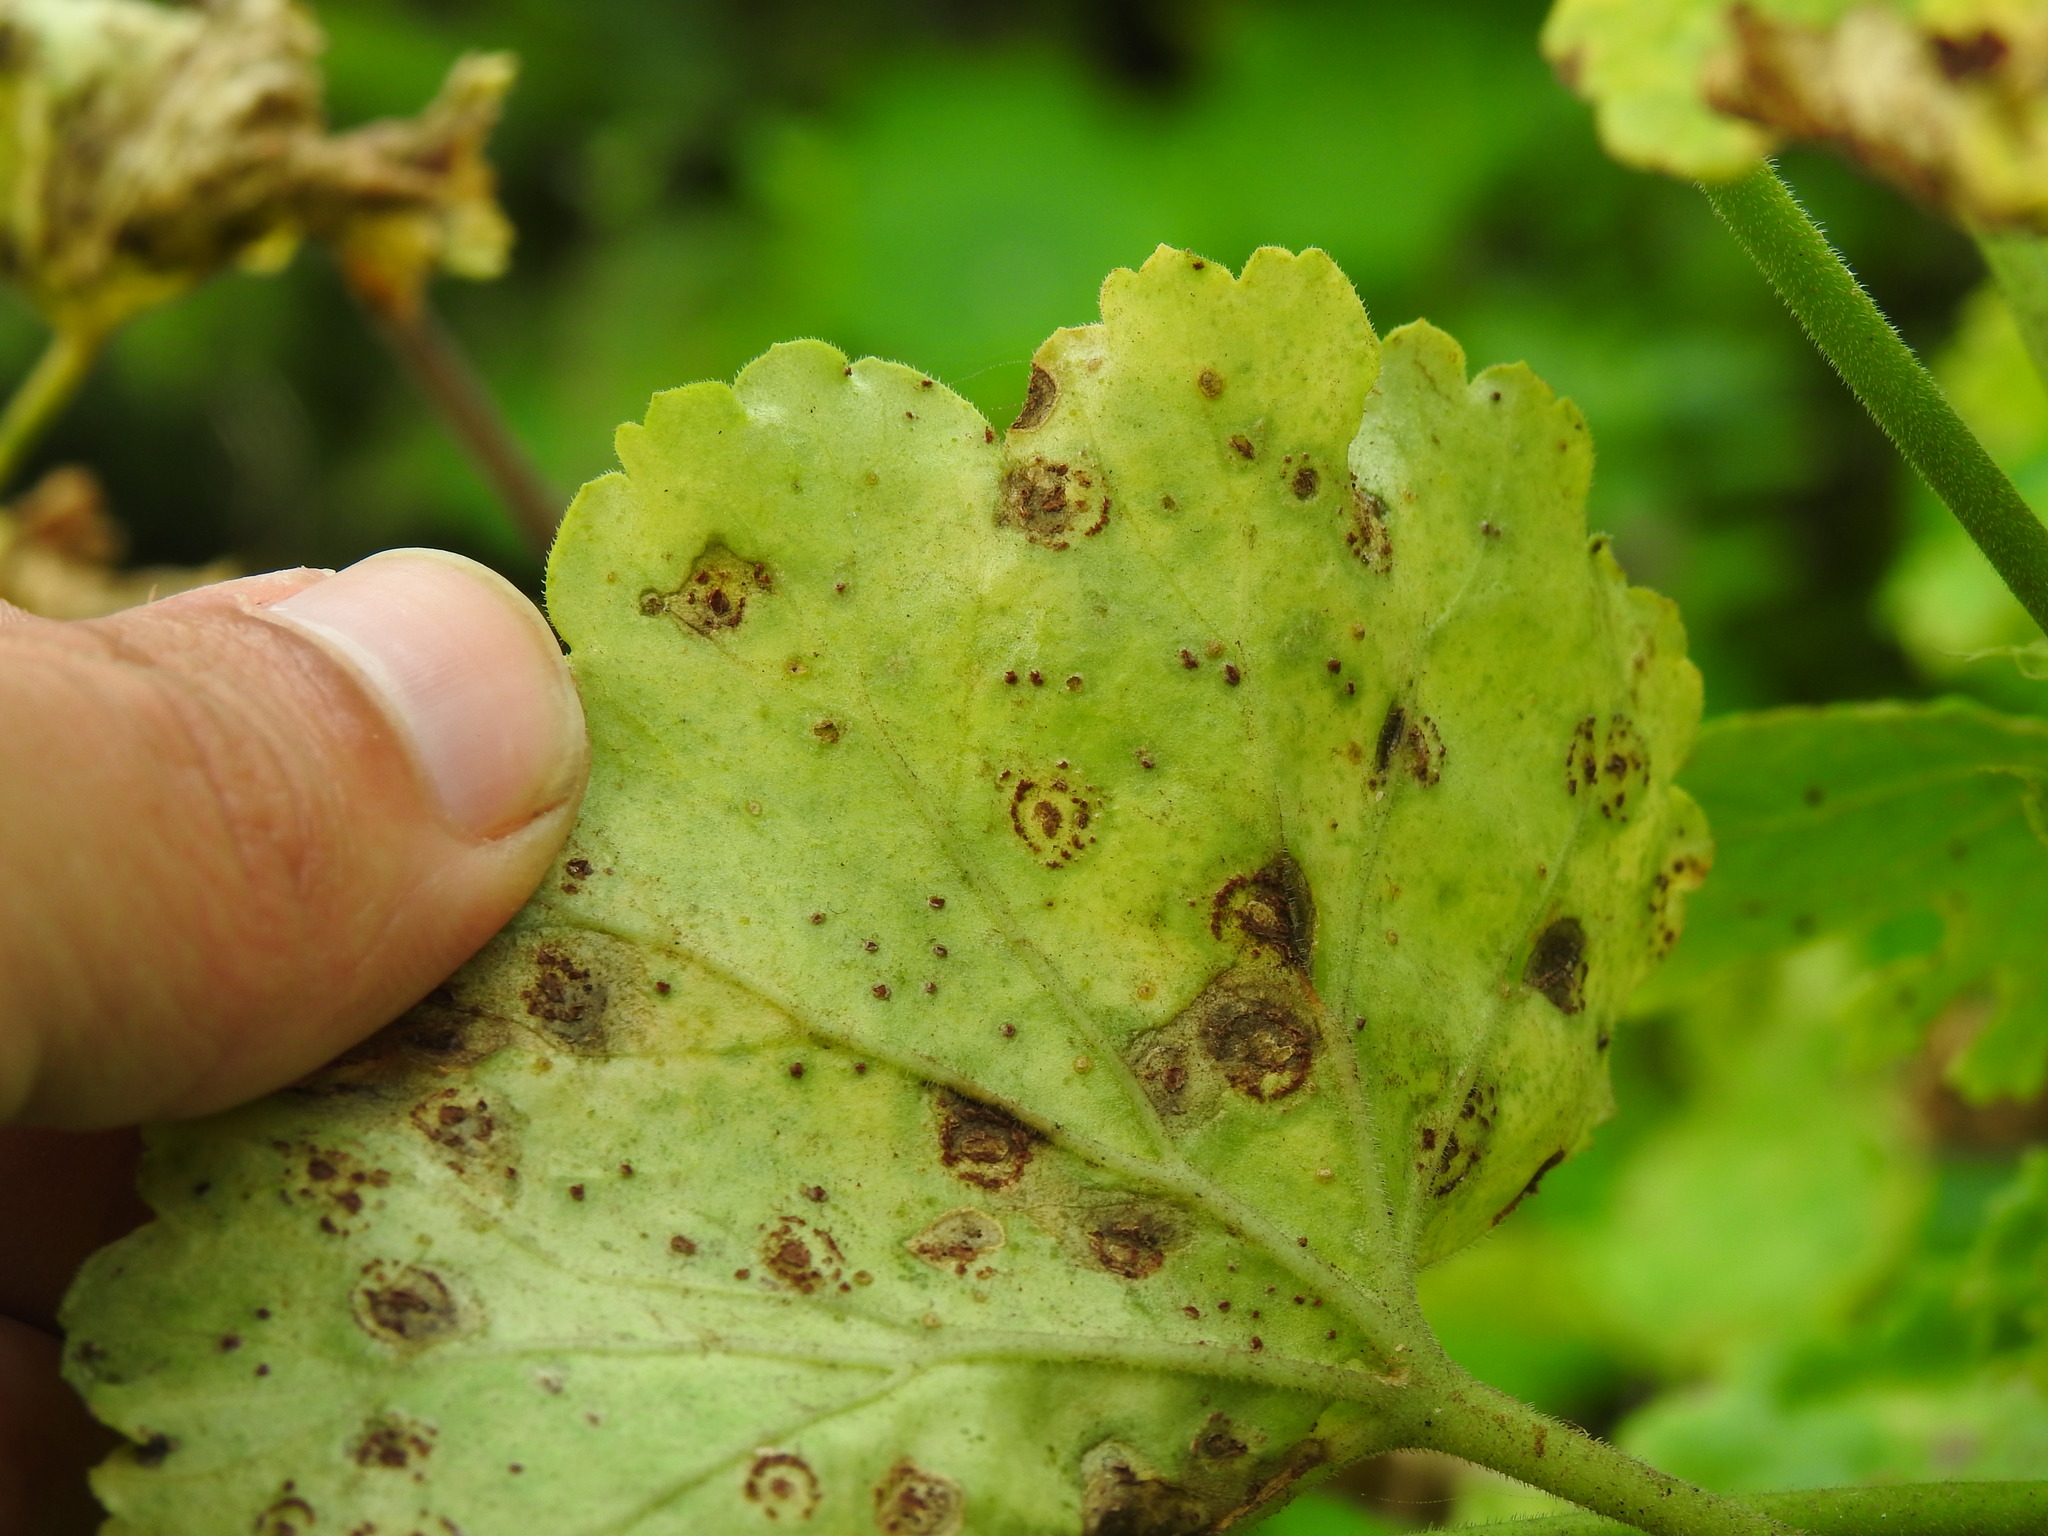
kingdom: Fungi
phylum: Basidiomycota
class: Pucciniomycetes
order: Pucciniales
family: Pucciniaceae
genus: Puccinia
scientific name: Puccinia pelargonii-zonalis
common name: Rust of pelargonium
